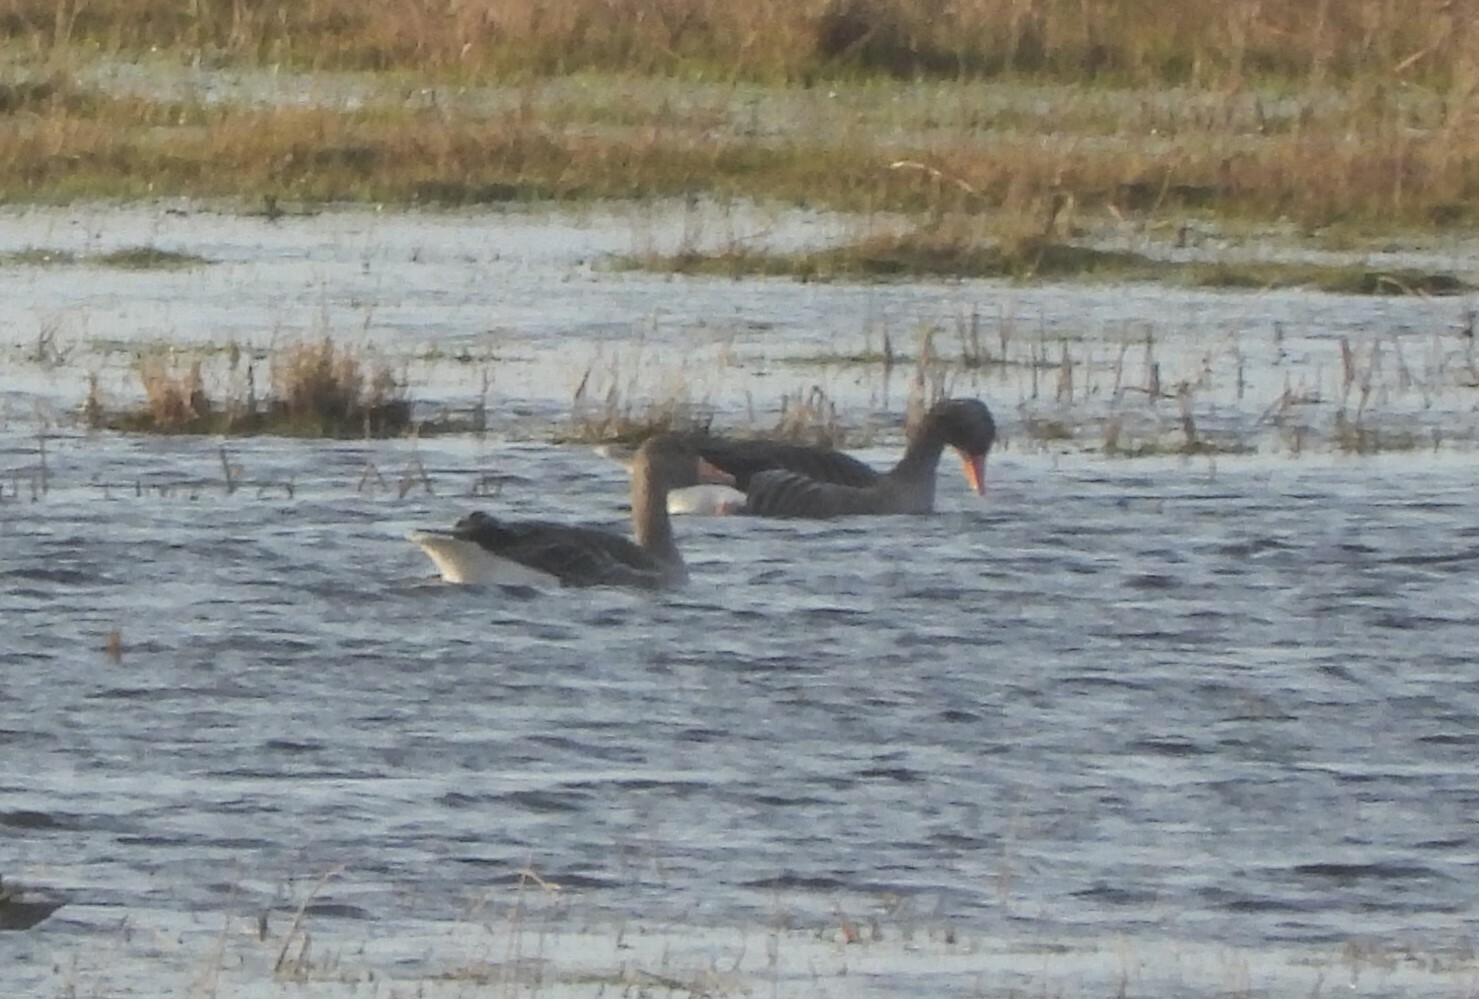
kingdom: Animalia
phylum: Chordata
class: Aves
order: Anseriformes
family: Anatidae
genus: Anser
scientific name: Anser anser
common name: Greylag goose
